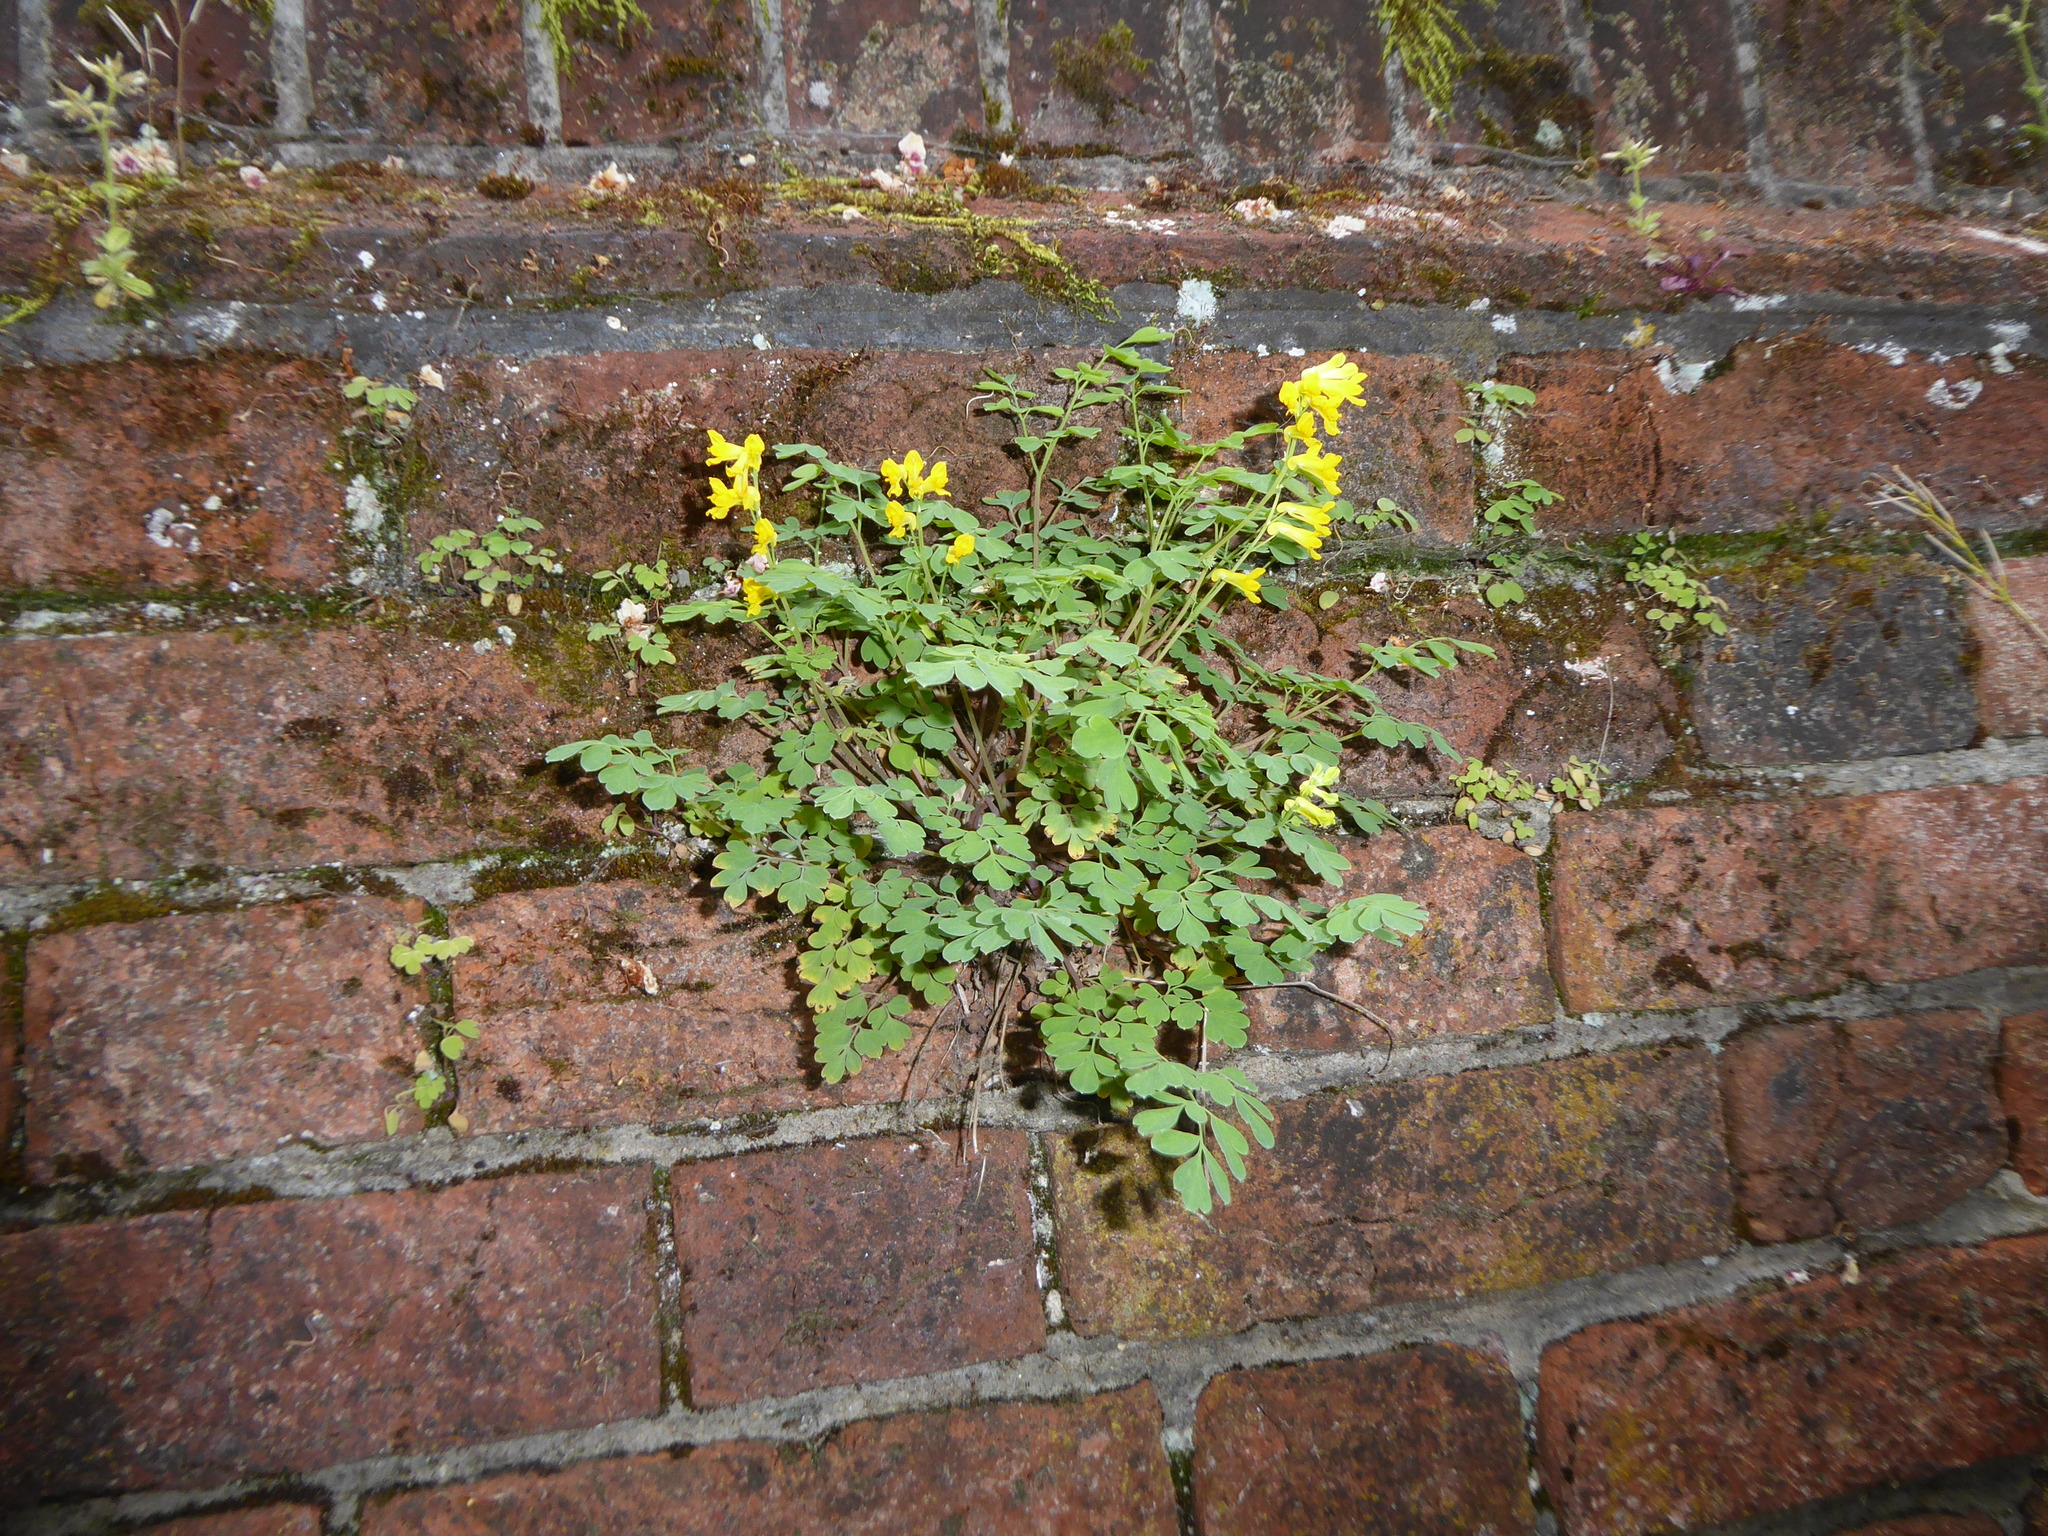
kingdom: Plantae
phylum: Tracheophyta
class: Magnoliopsida
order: Ranunculales
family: Papaveraceae
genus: Pseudofumaria
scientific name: Pseudofumaria lutea
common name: Yellow corydalis
